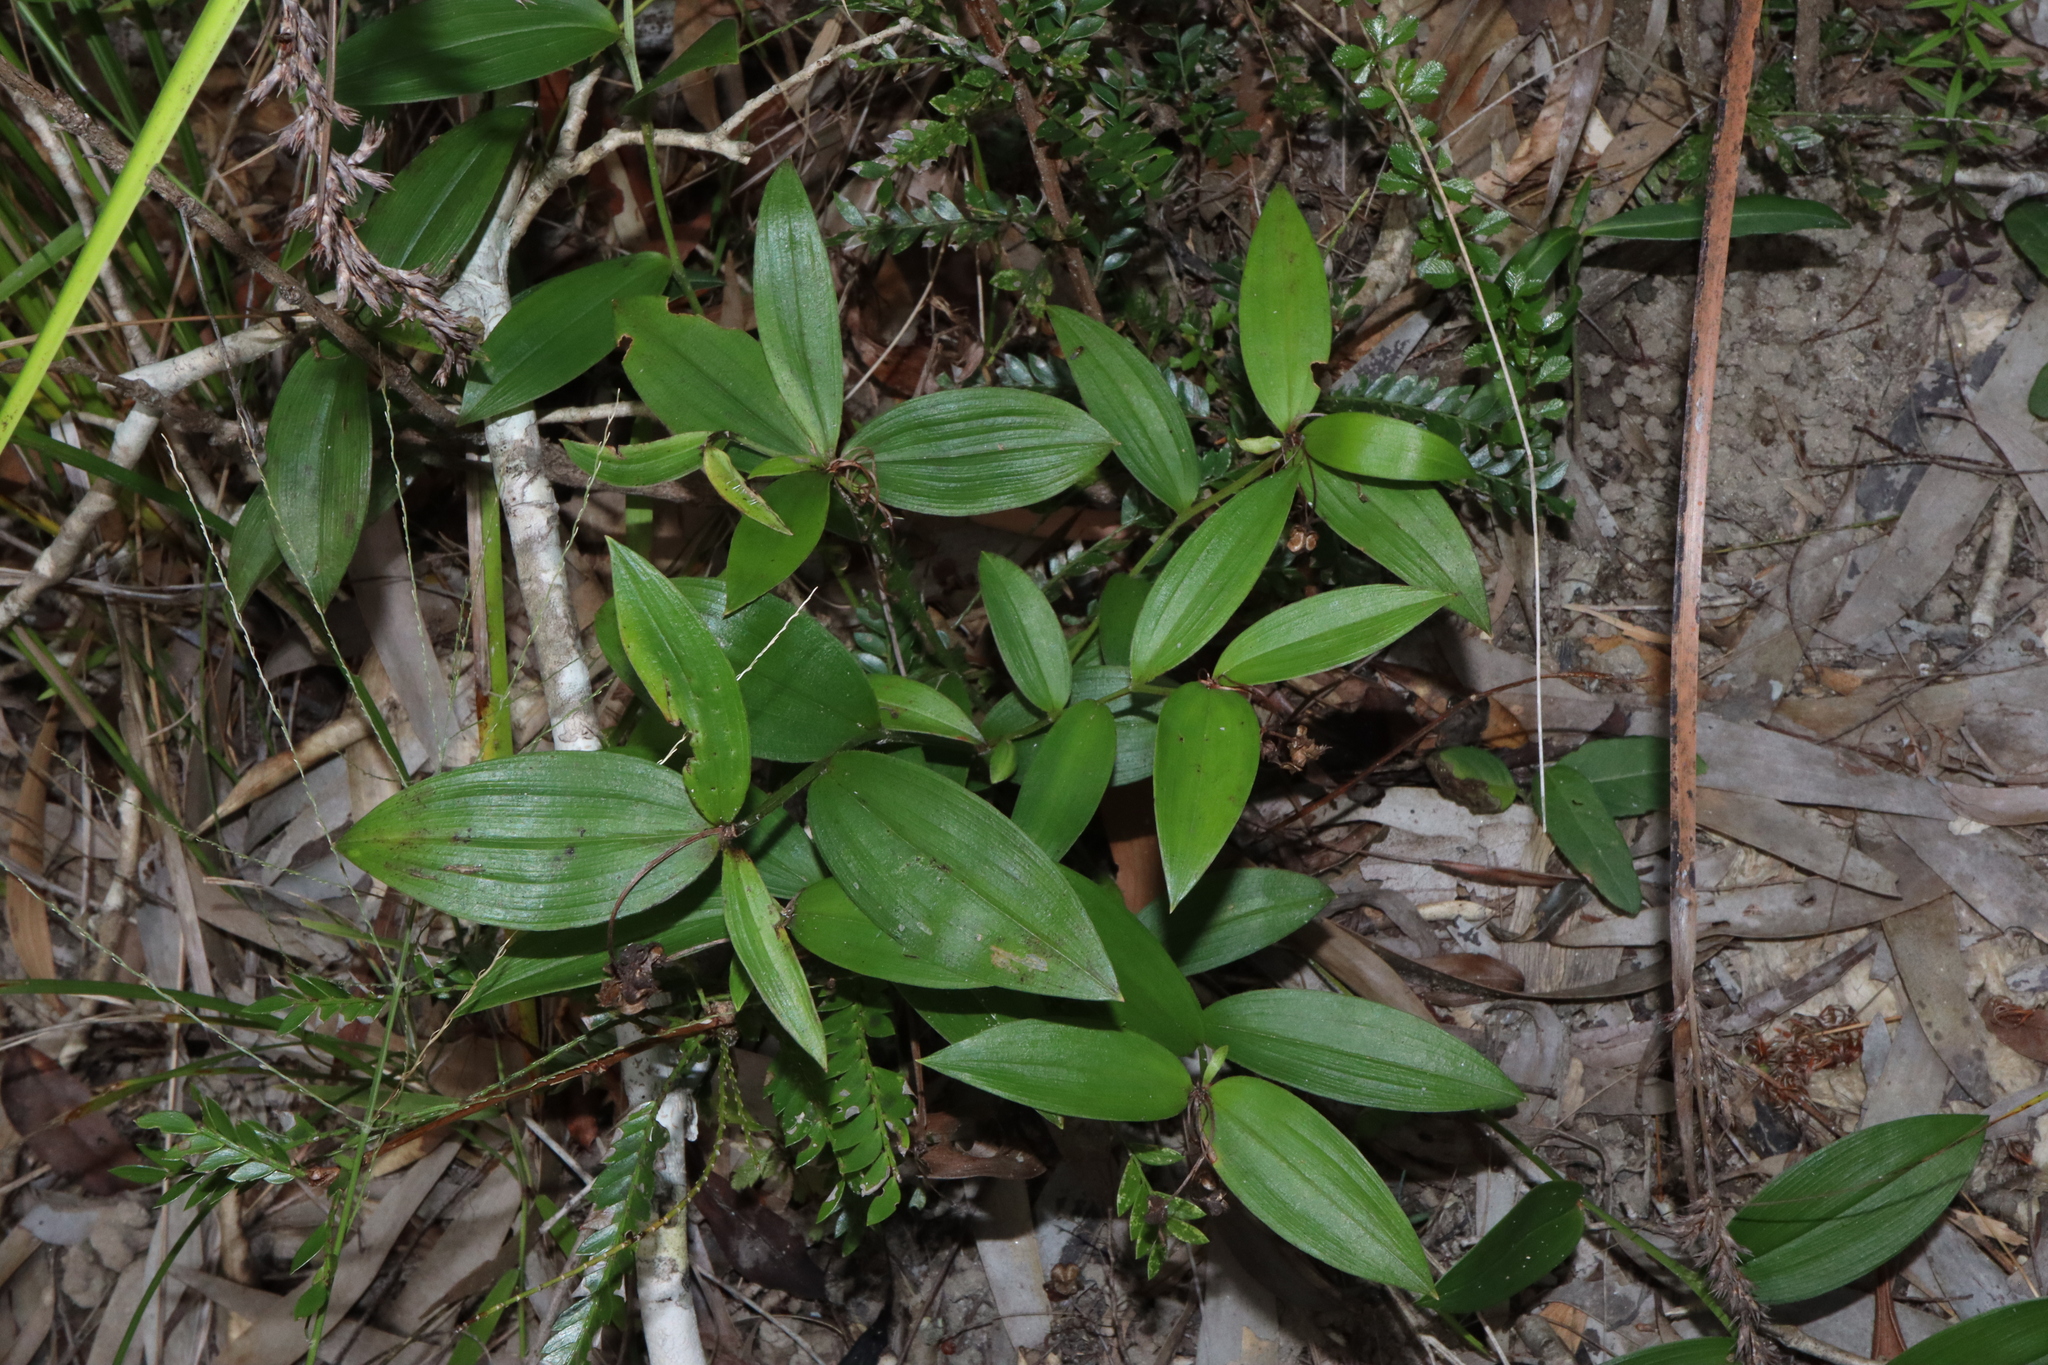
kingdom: Plantae
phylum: Tracheophyta
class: Liliopsida
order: Liliales
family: Colchicaceae
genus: Schelhammera
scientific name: Schelhammera multiflora
